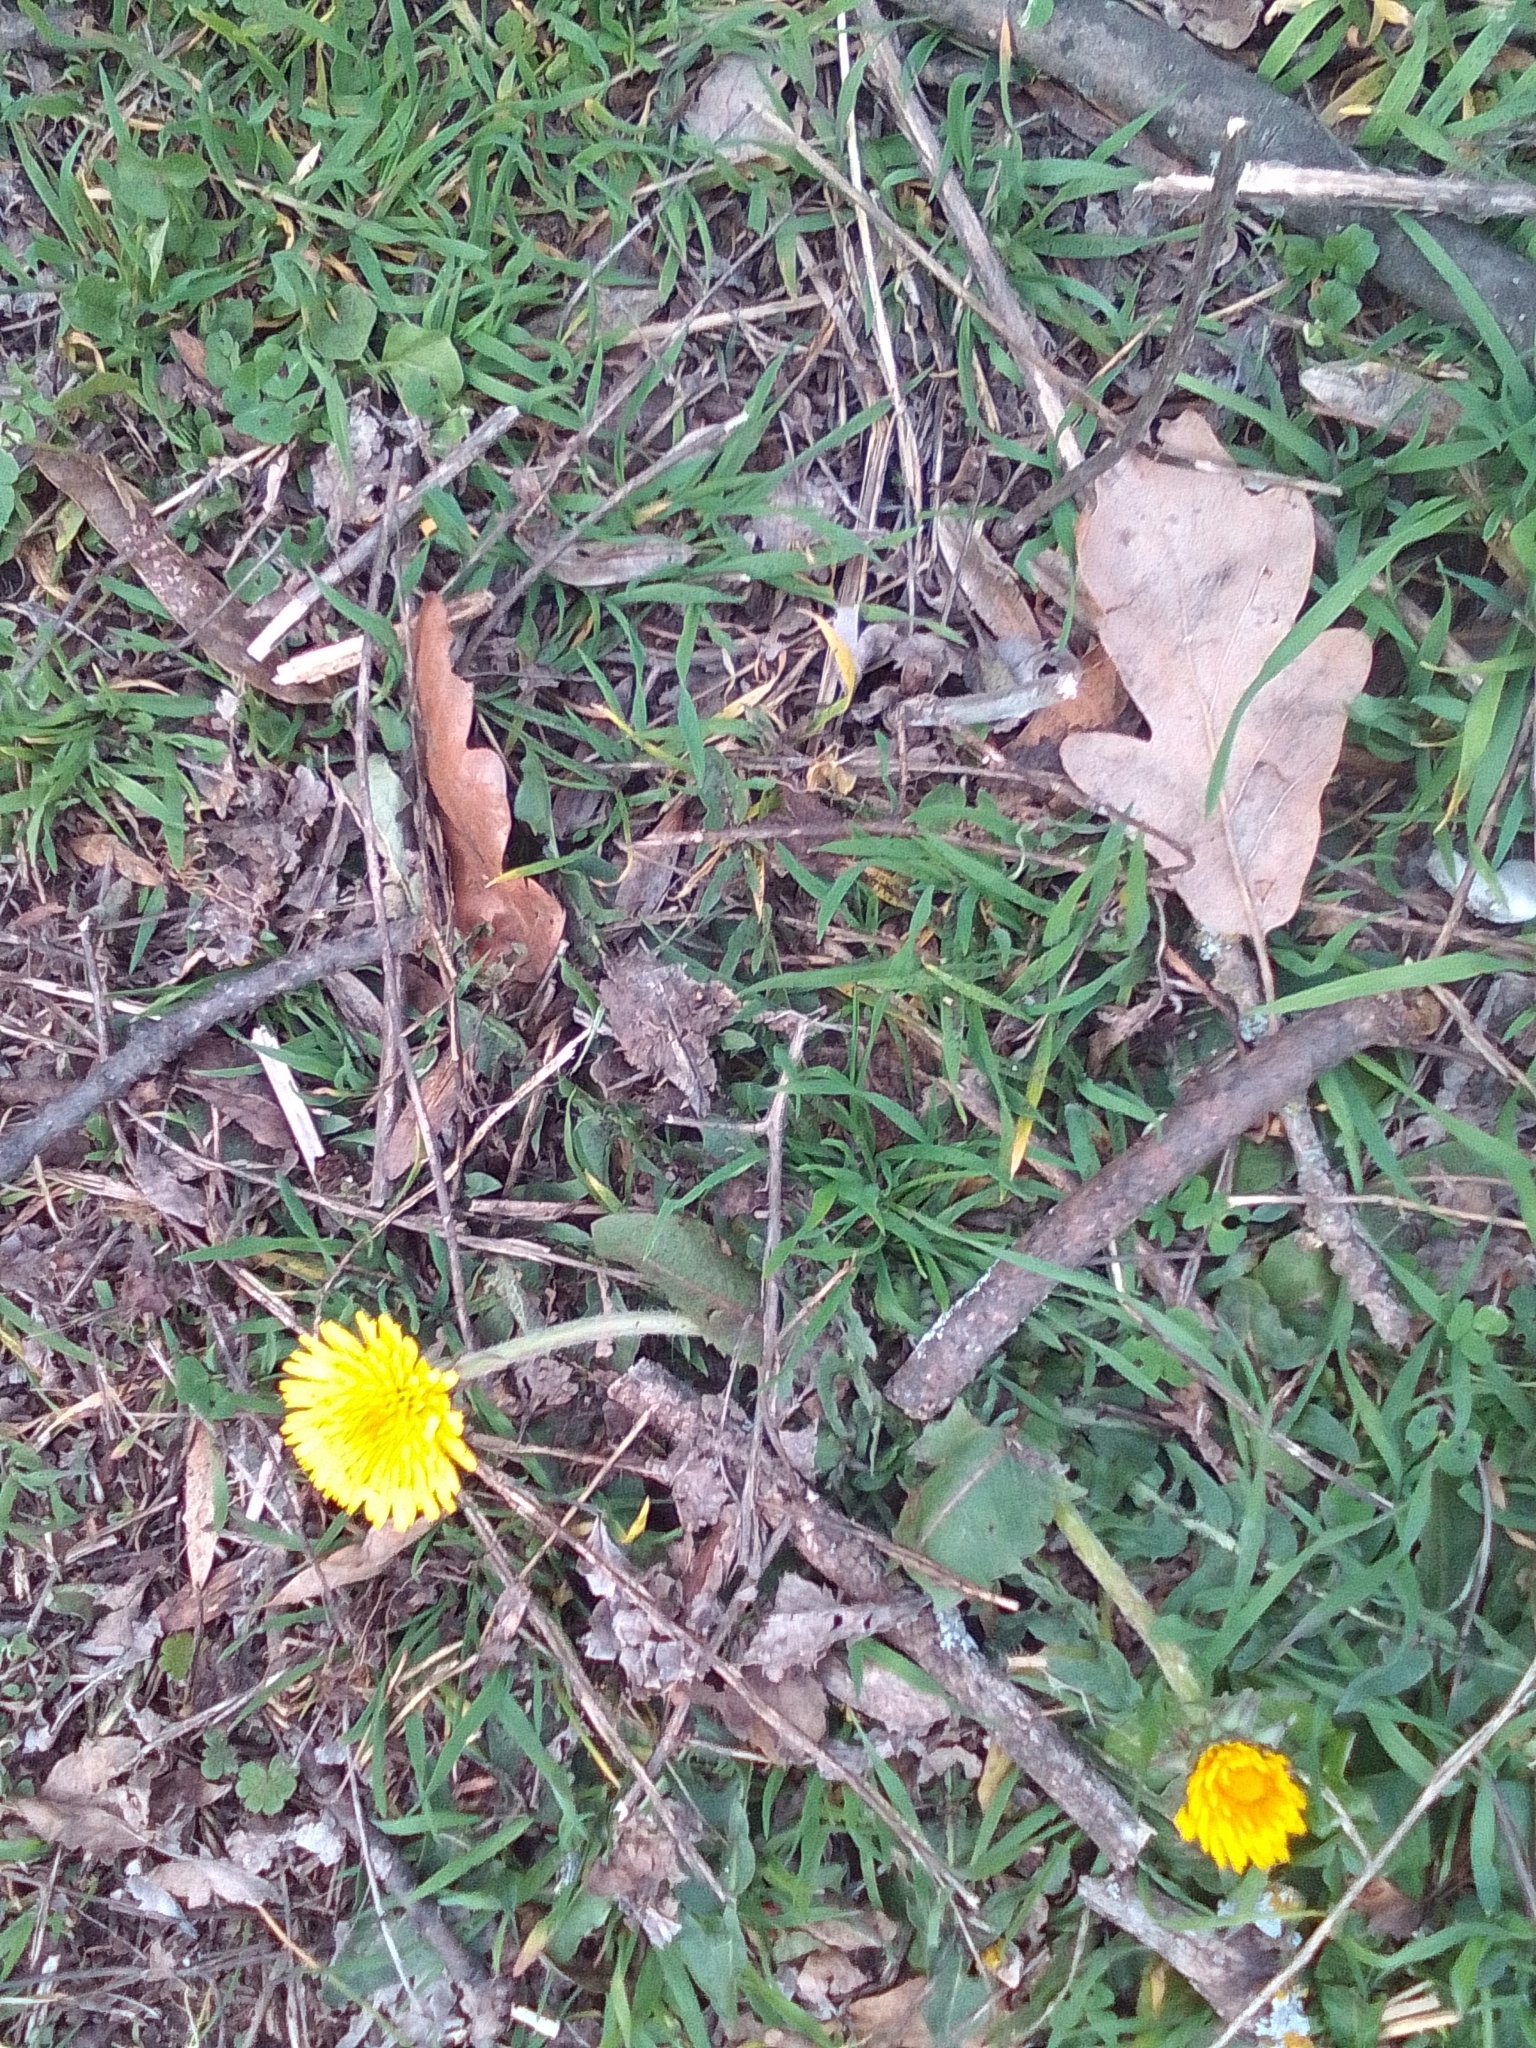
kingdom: Plantae
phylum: Tracheophyta
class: Magnoliopsida
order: Asterales
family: Asteraceae
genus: Taraxacum
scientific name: Taraxacum
